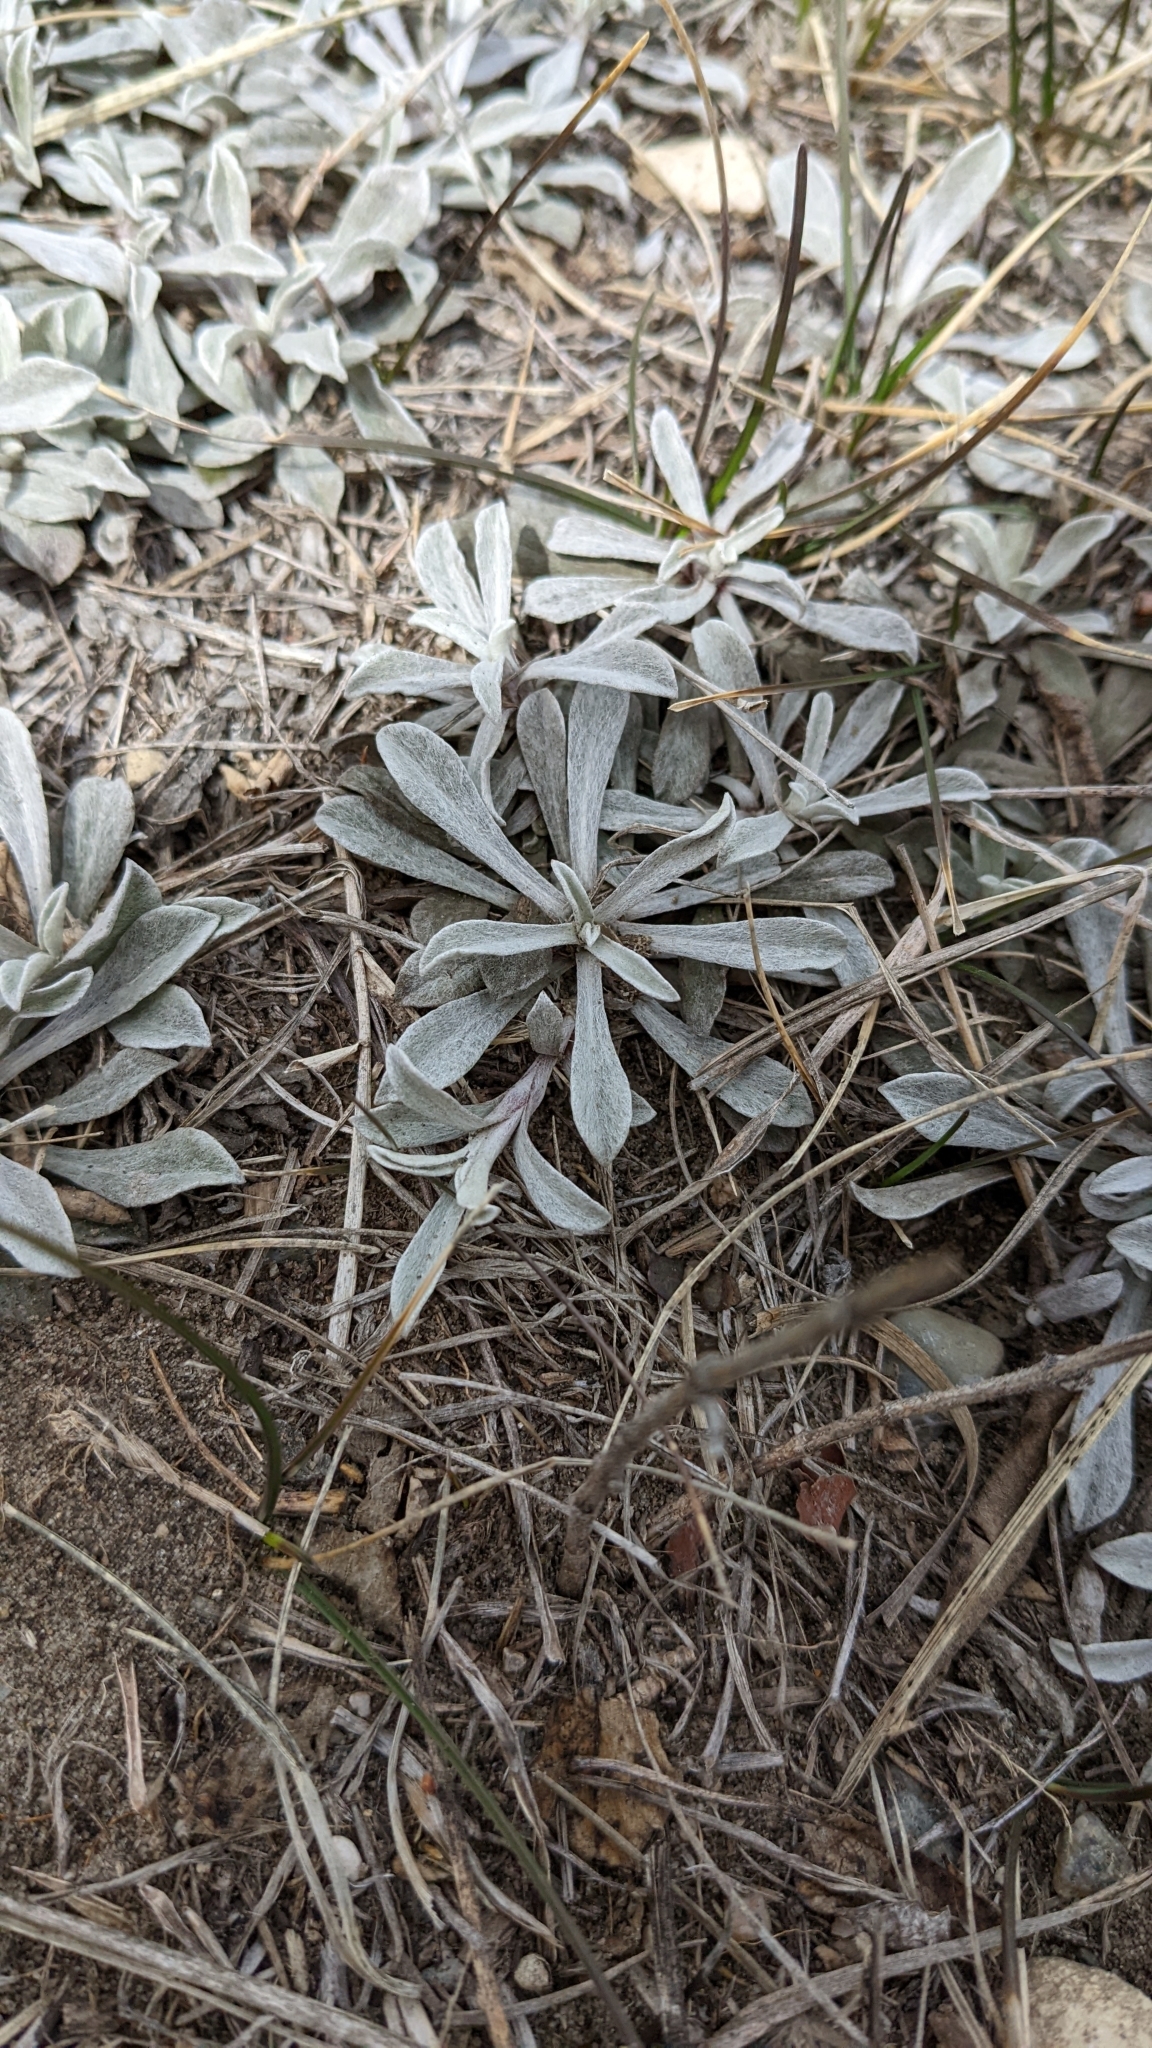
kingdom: Plantae
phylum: Tracheophyta
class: Magnoliopsida
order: Asterales
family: Asteraceae
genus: Antennaria
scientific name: Antennaria parvifolia
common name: Nuttall's pussytoes
